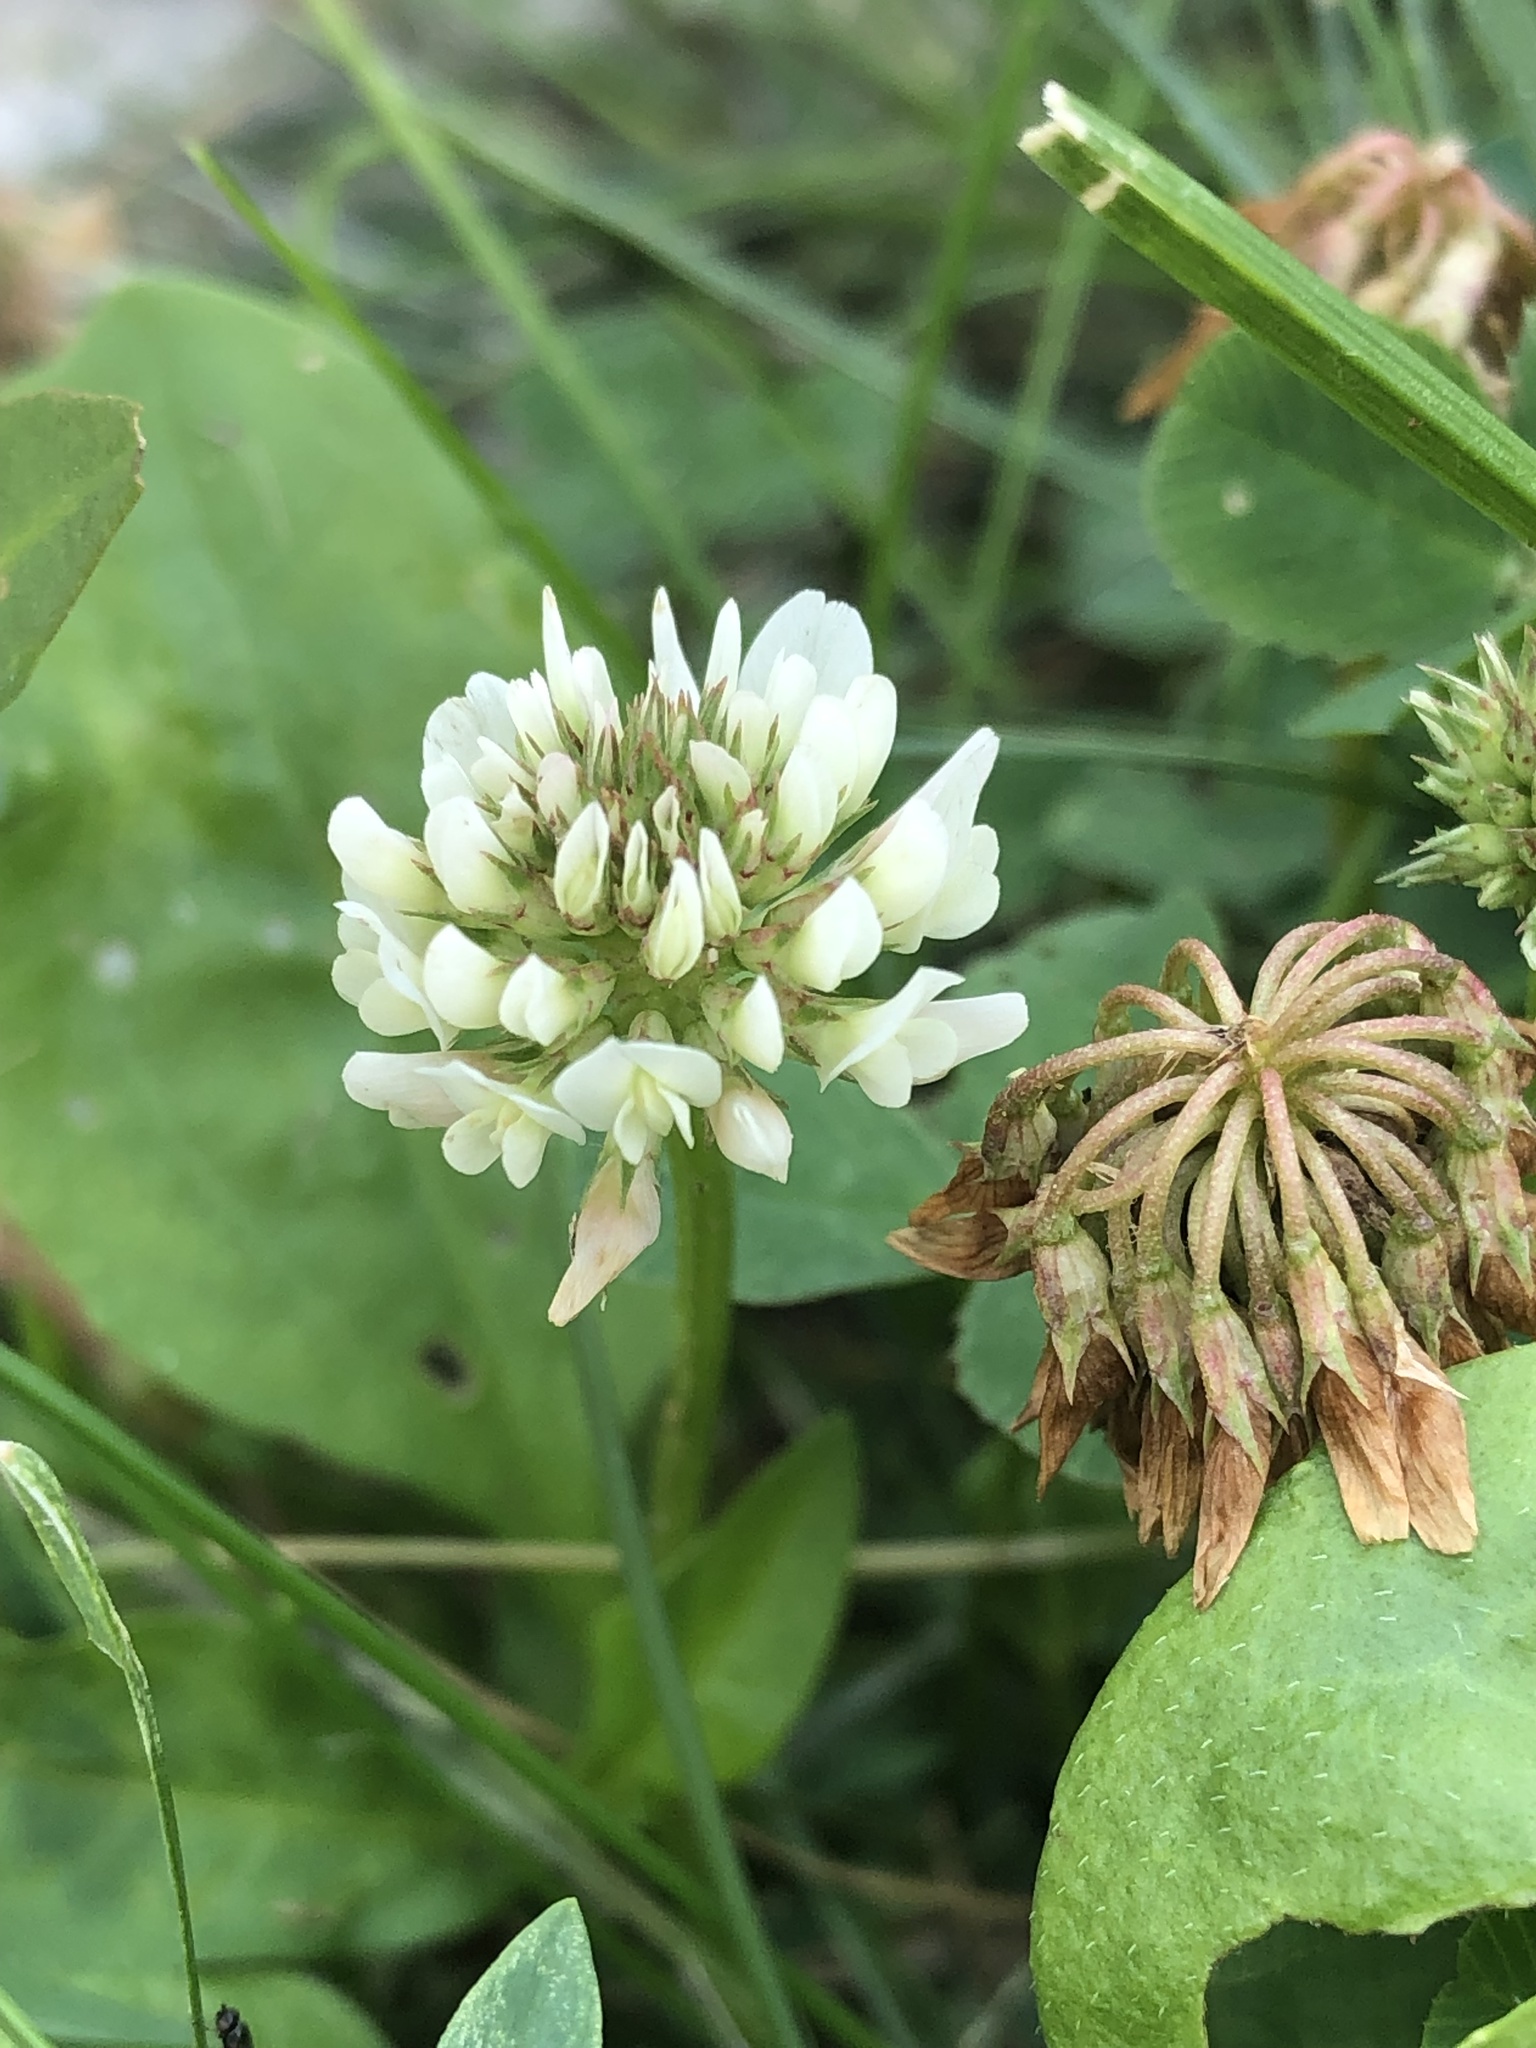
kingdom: Plantae
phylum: Tracheophyta
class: Magnoliopsida
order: Fabales
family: Fabaceae
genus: Trifolium
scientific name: Trifolium repens
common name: White clover
